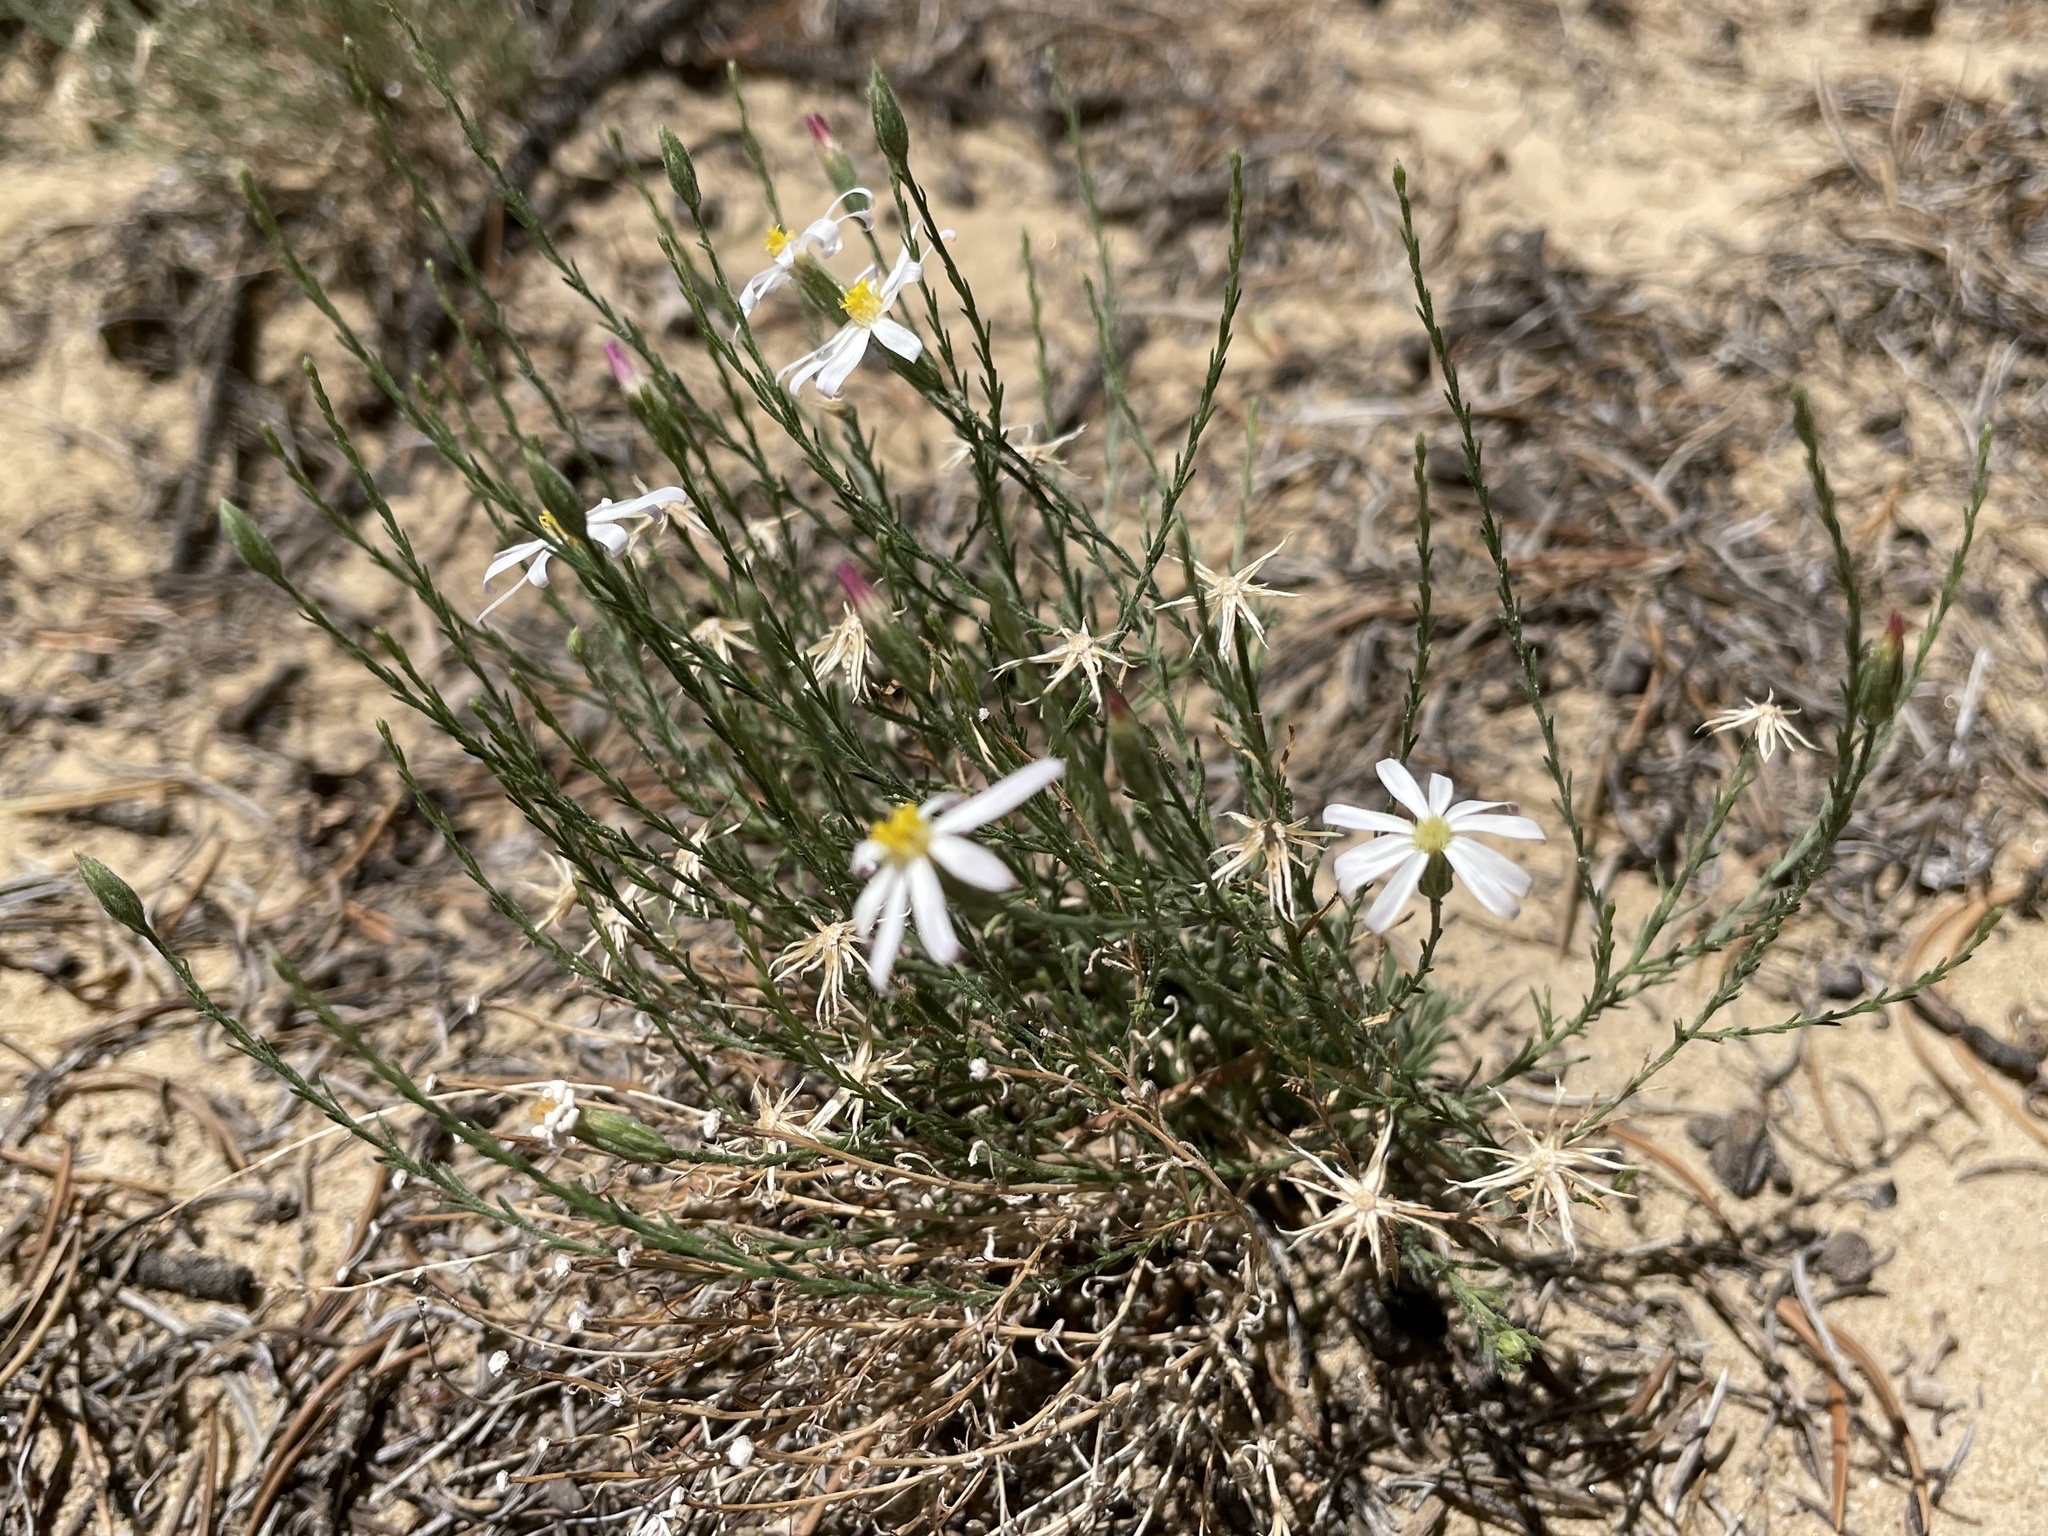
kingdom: Plantae
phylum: Tracheophyta
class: Magnoliopsida
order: Asterales
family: Asteraceae
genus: Chaetopappa
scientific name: Chaetopappa ericoides
